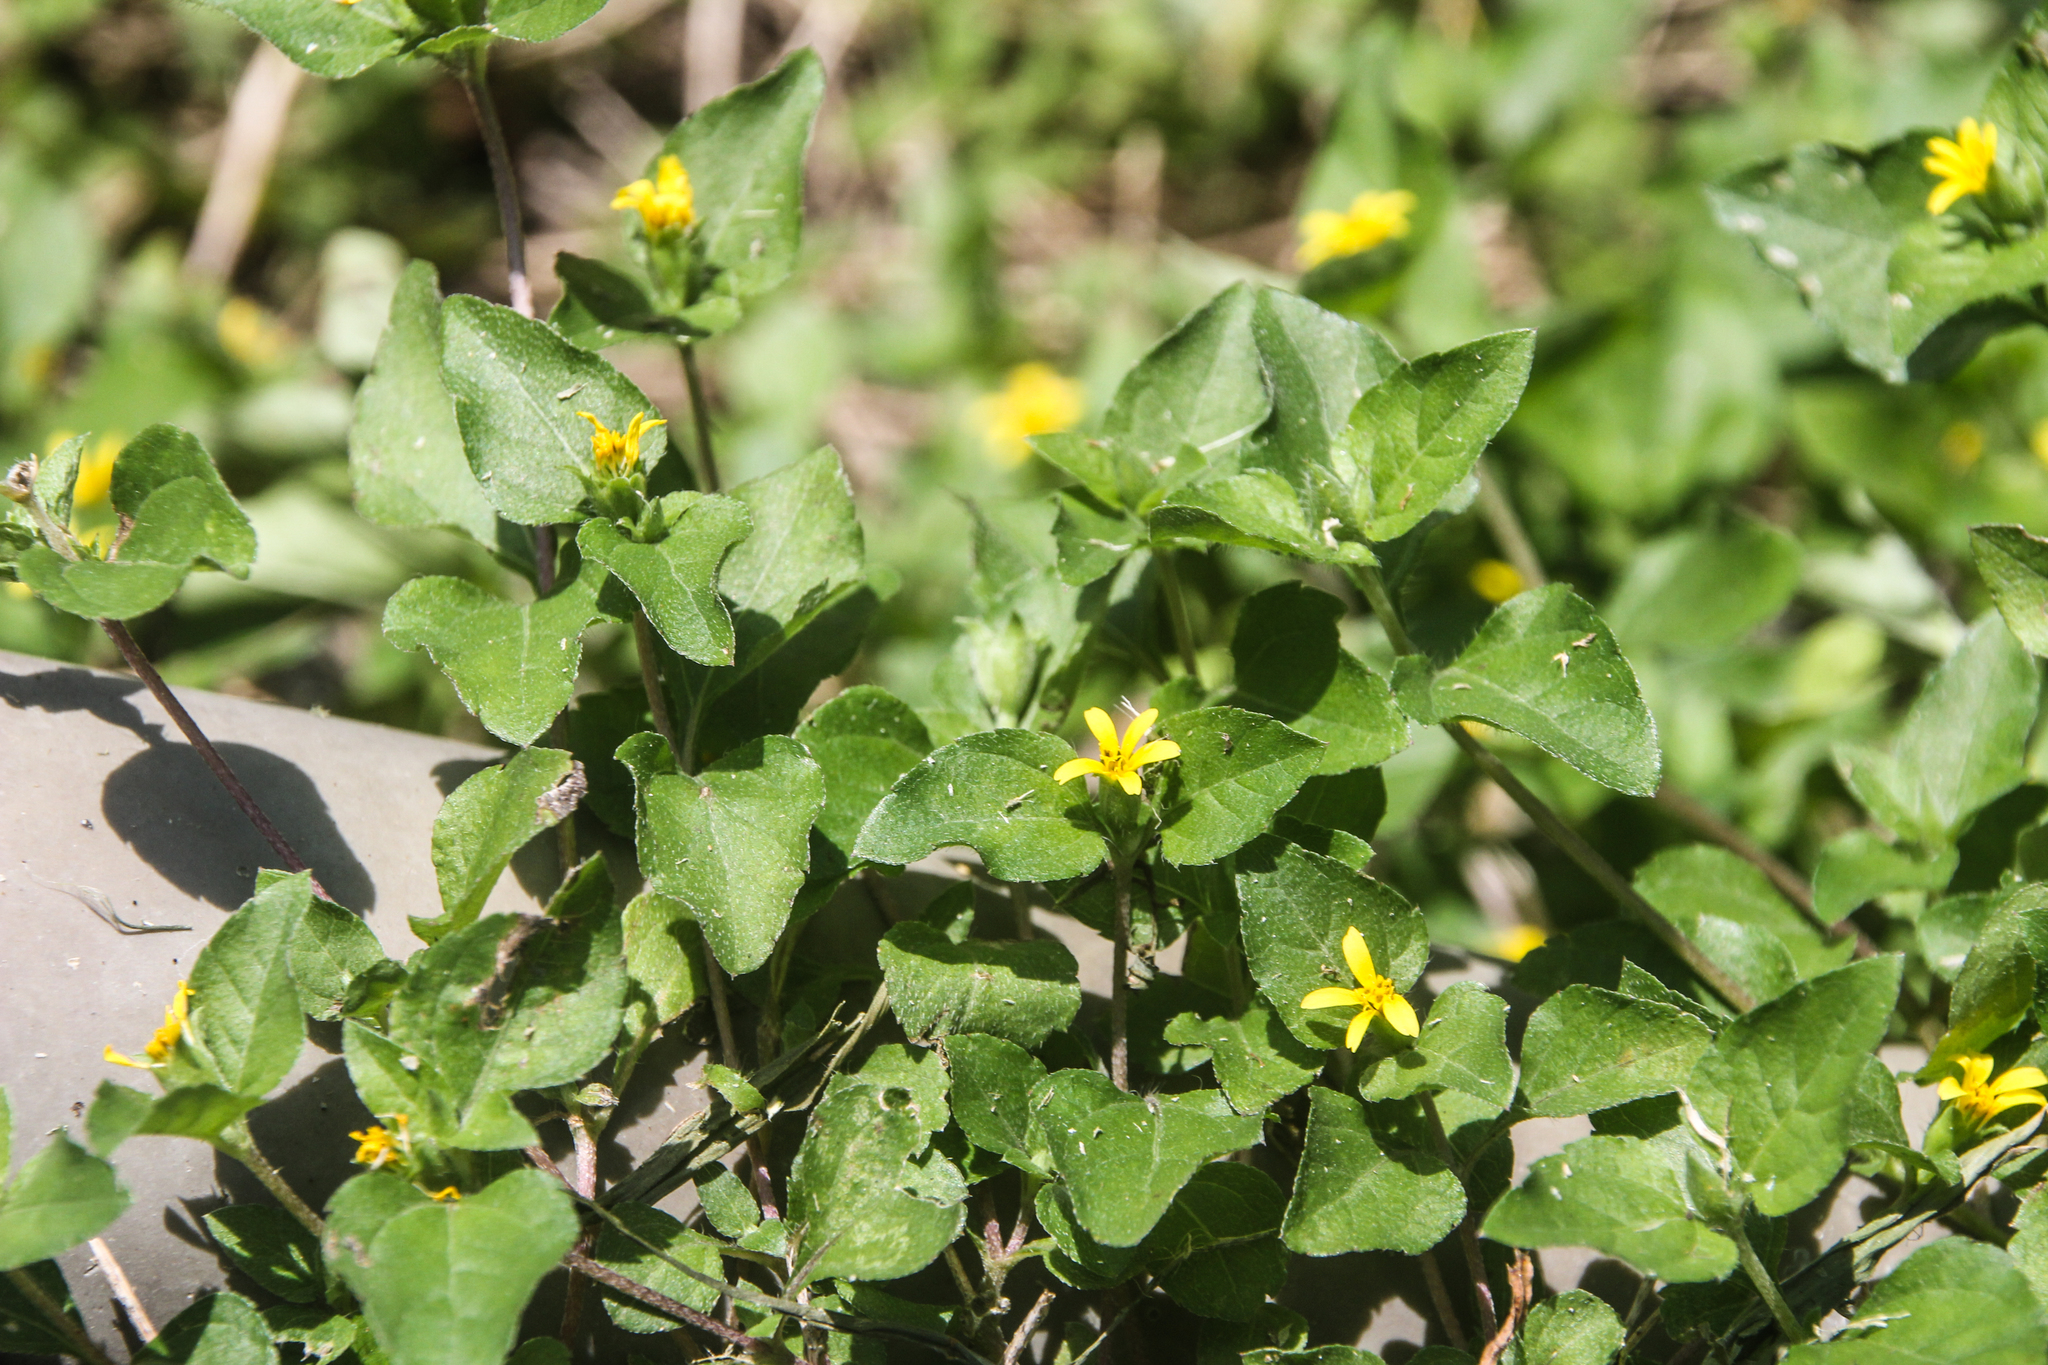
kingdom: Plantae
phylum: Tracheophyta
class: Magnoliopsida
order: Asterales
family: Asteraceae
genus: Calyptocarpus
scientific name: Calyptocarpus vialis
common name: Straggler daisy
